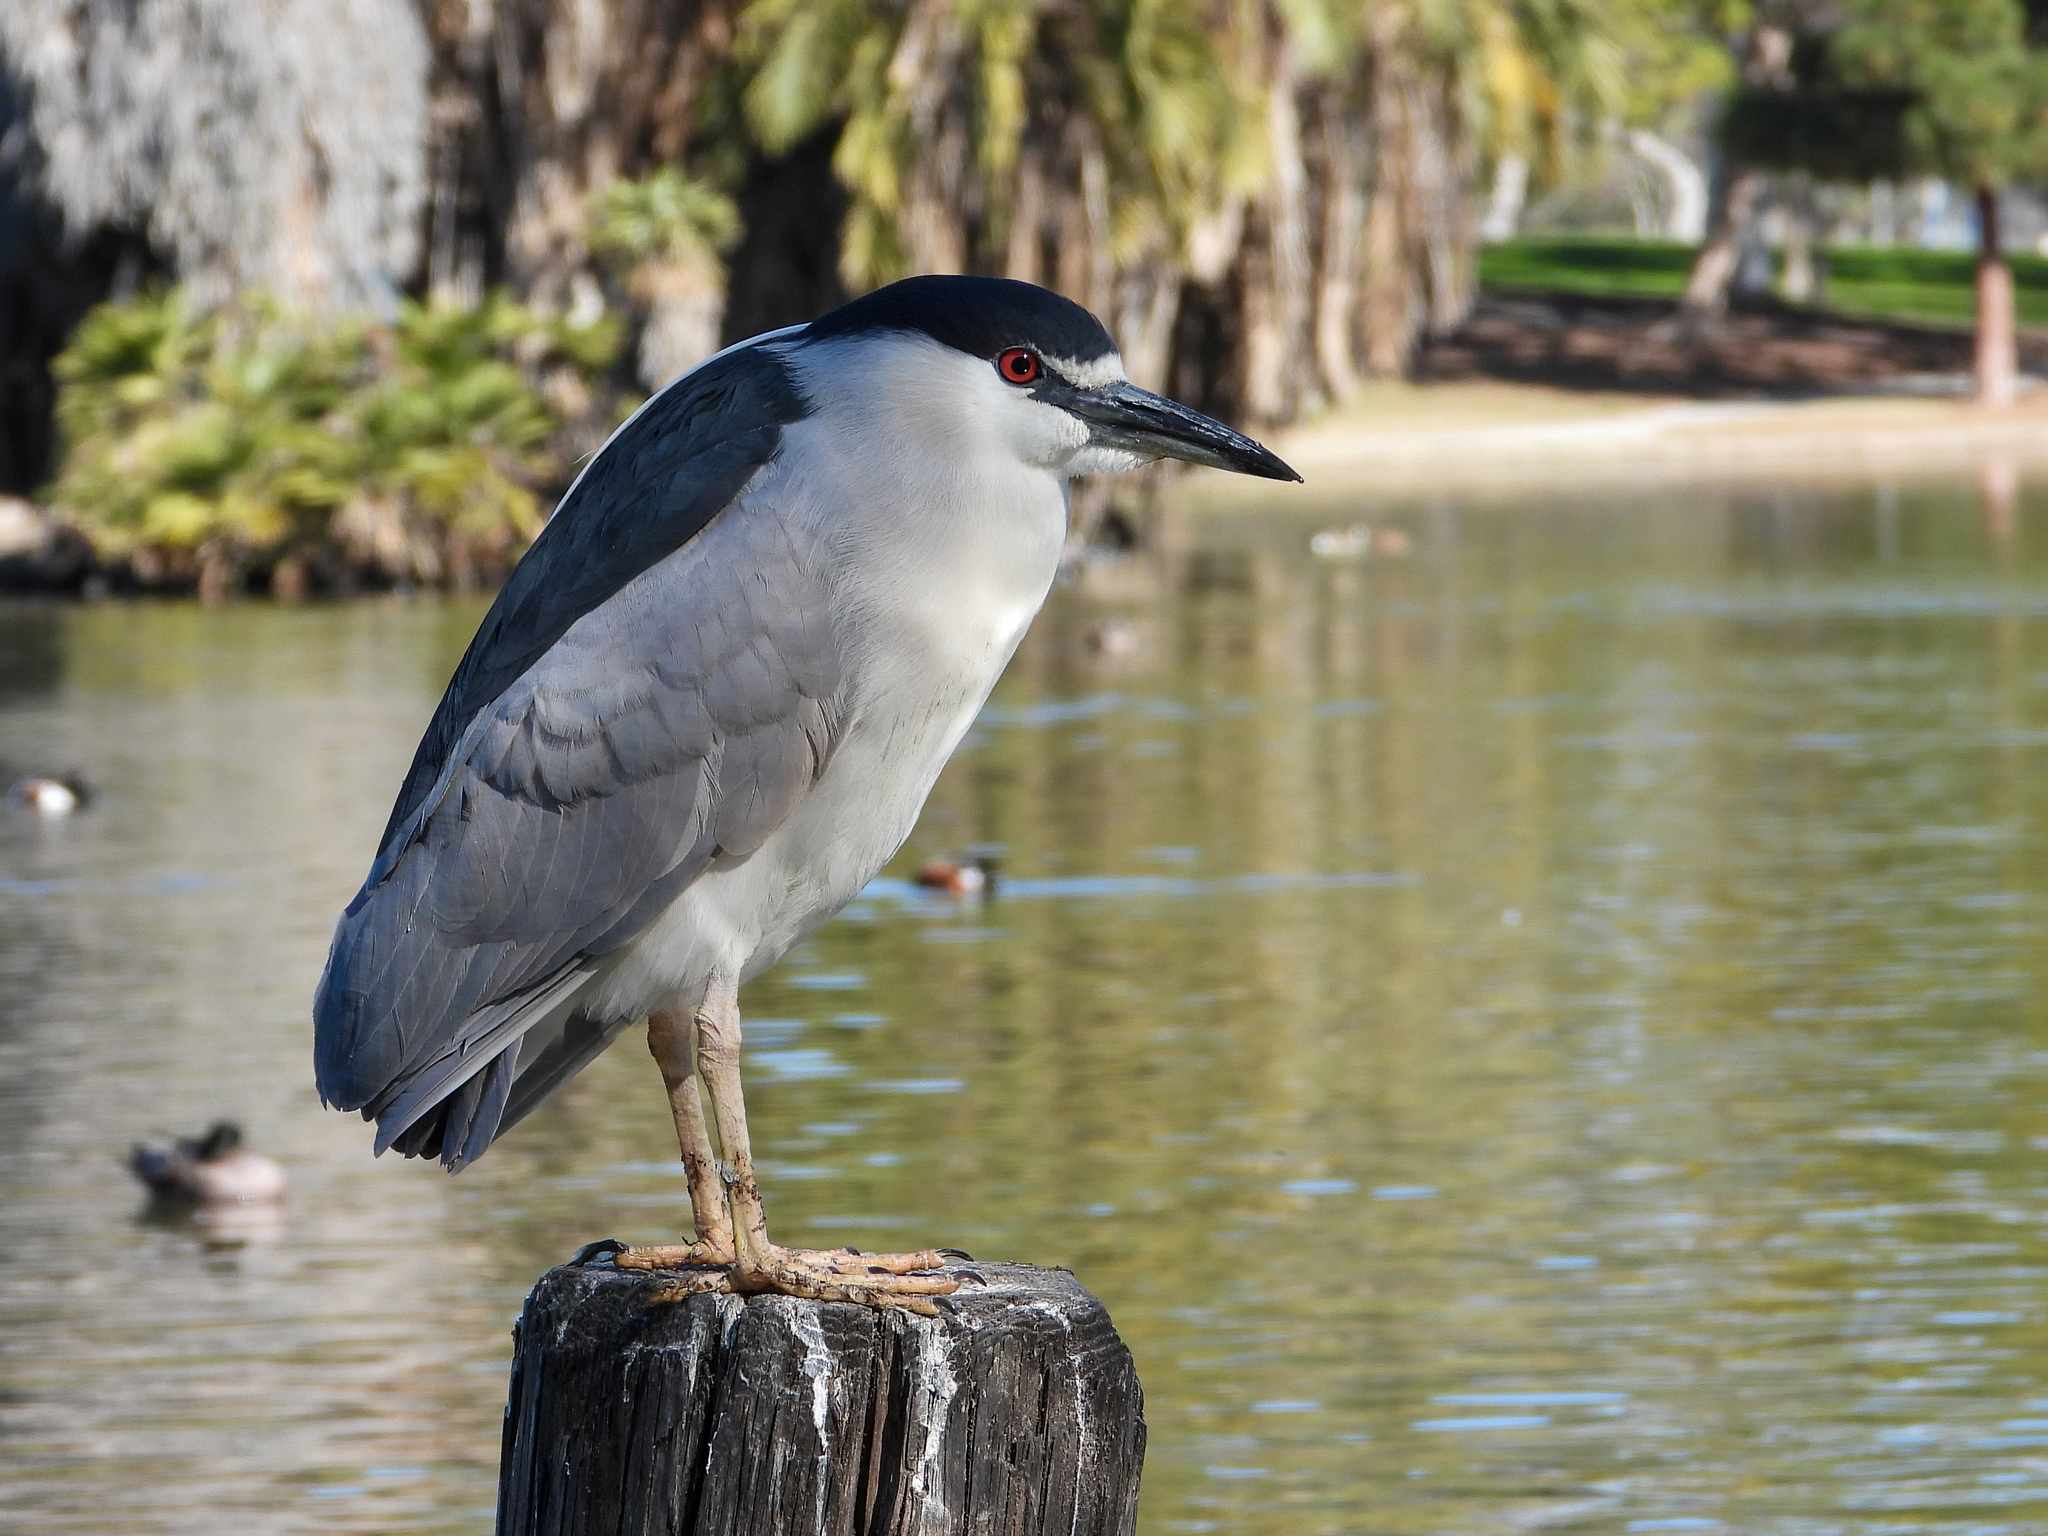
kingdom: Animalia
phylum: Chordata
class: Aves
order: Pelecaniformes
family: Ardeidae
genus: Nycticorax
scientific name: Nycticorax nycticorax
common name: Black-crowned night heron
